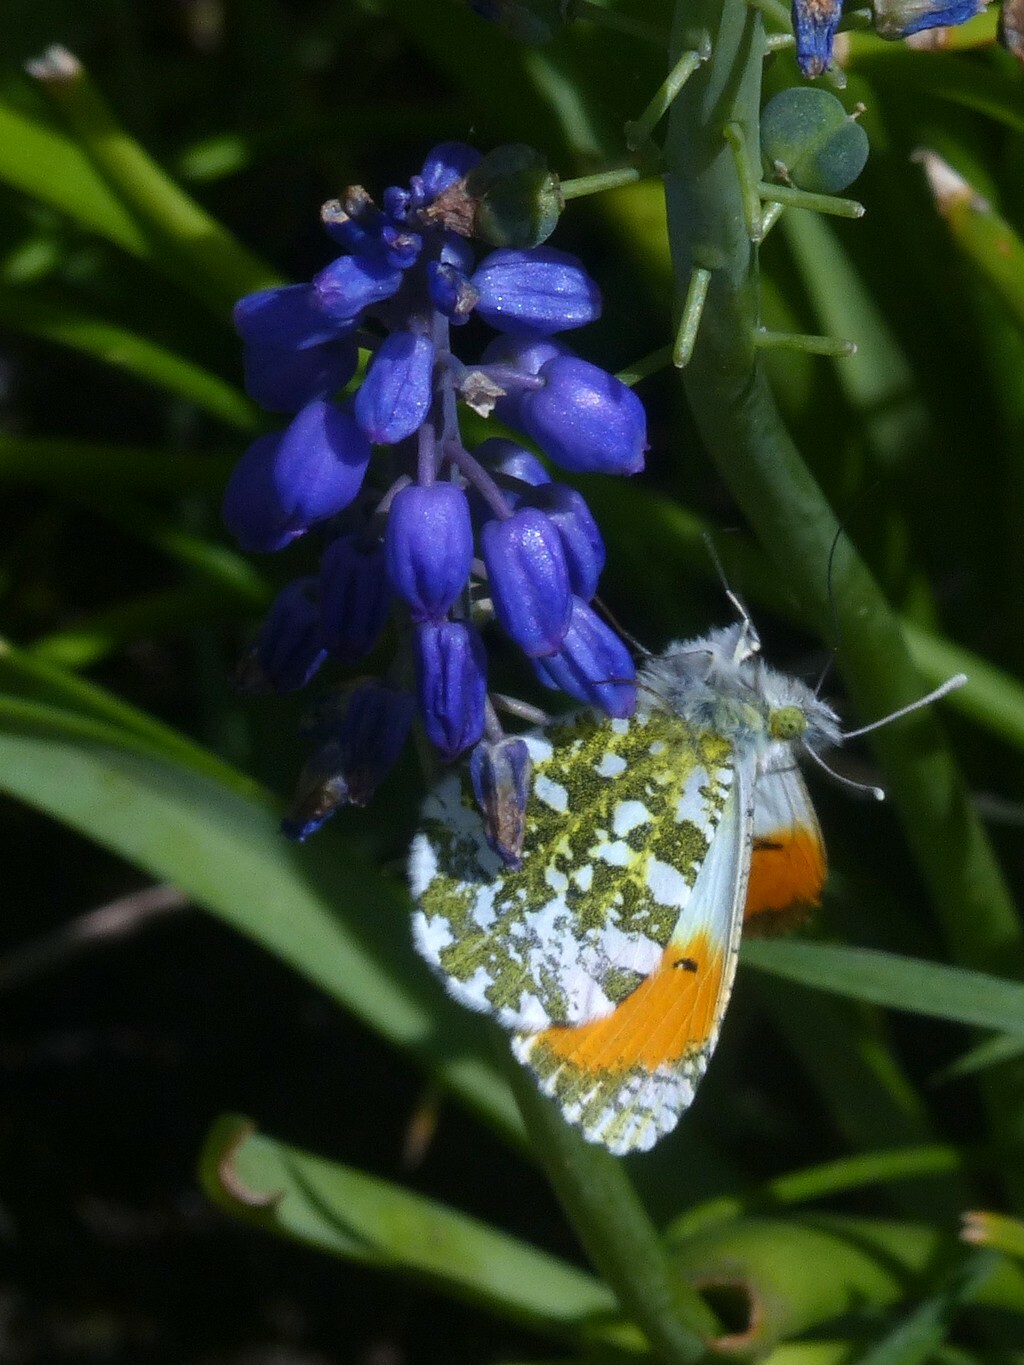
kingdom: Animalia
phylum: Arthropoda
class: Insecta
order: Lepidoptera
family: Pieridae
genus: Anthocharis
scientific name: Anthocharis cardamines
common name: Orange-tip
